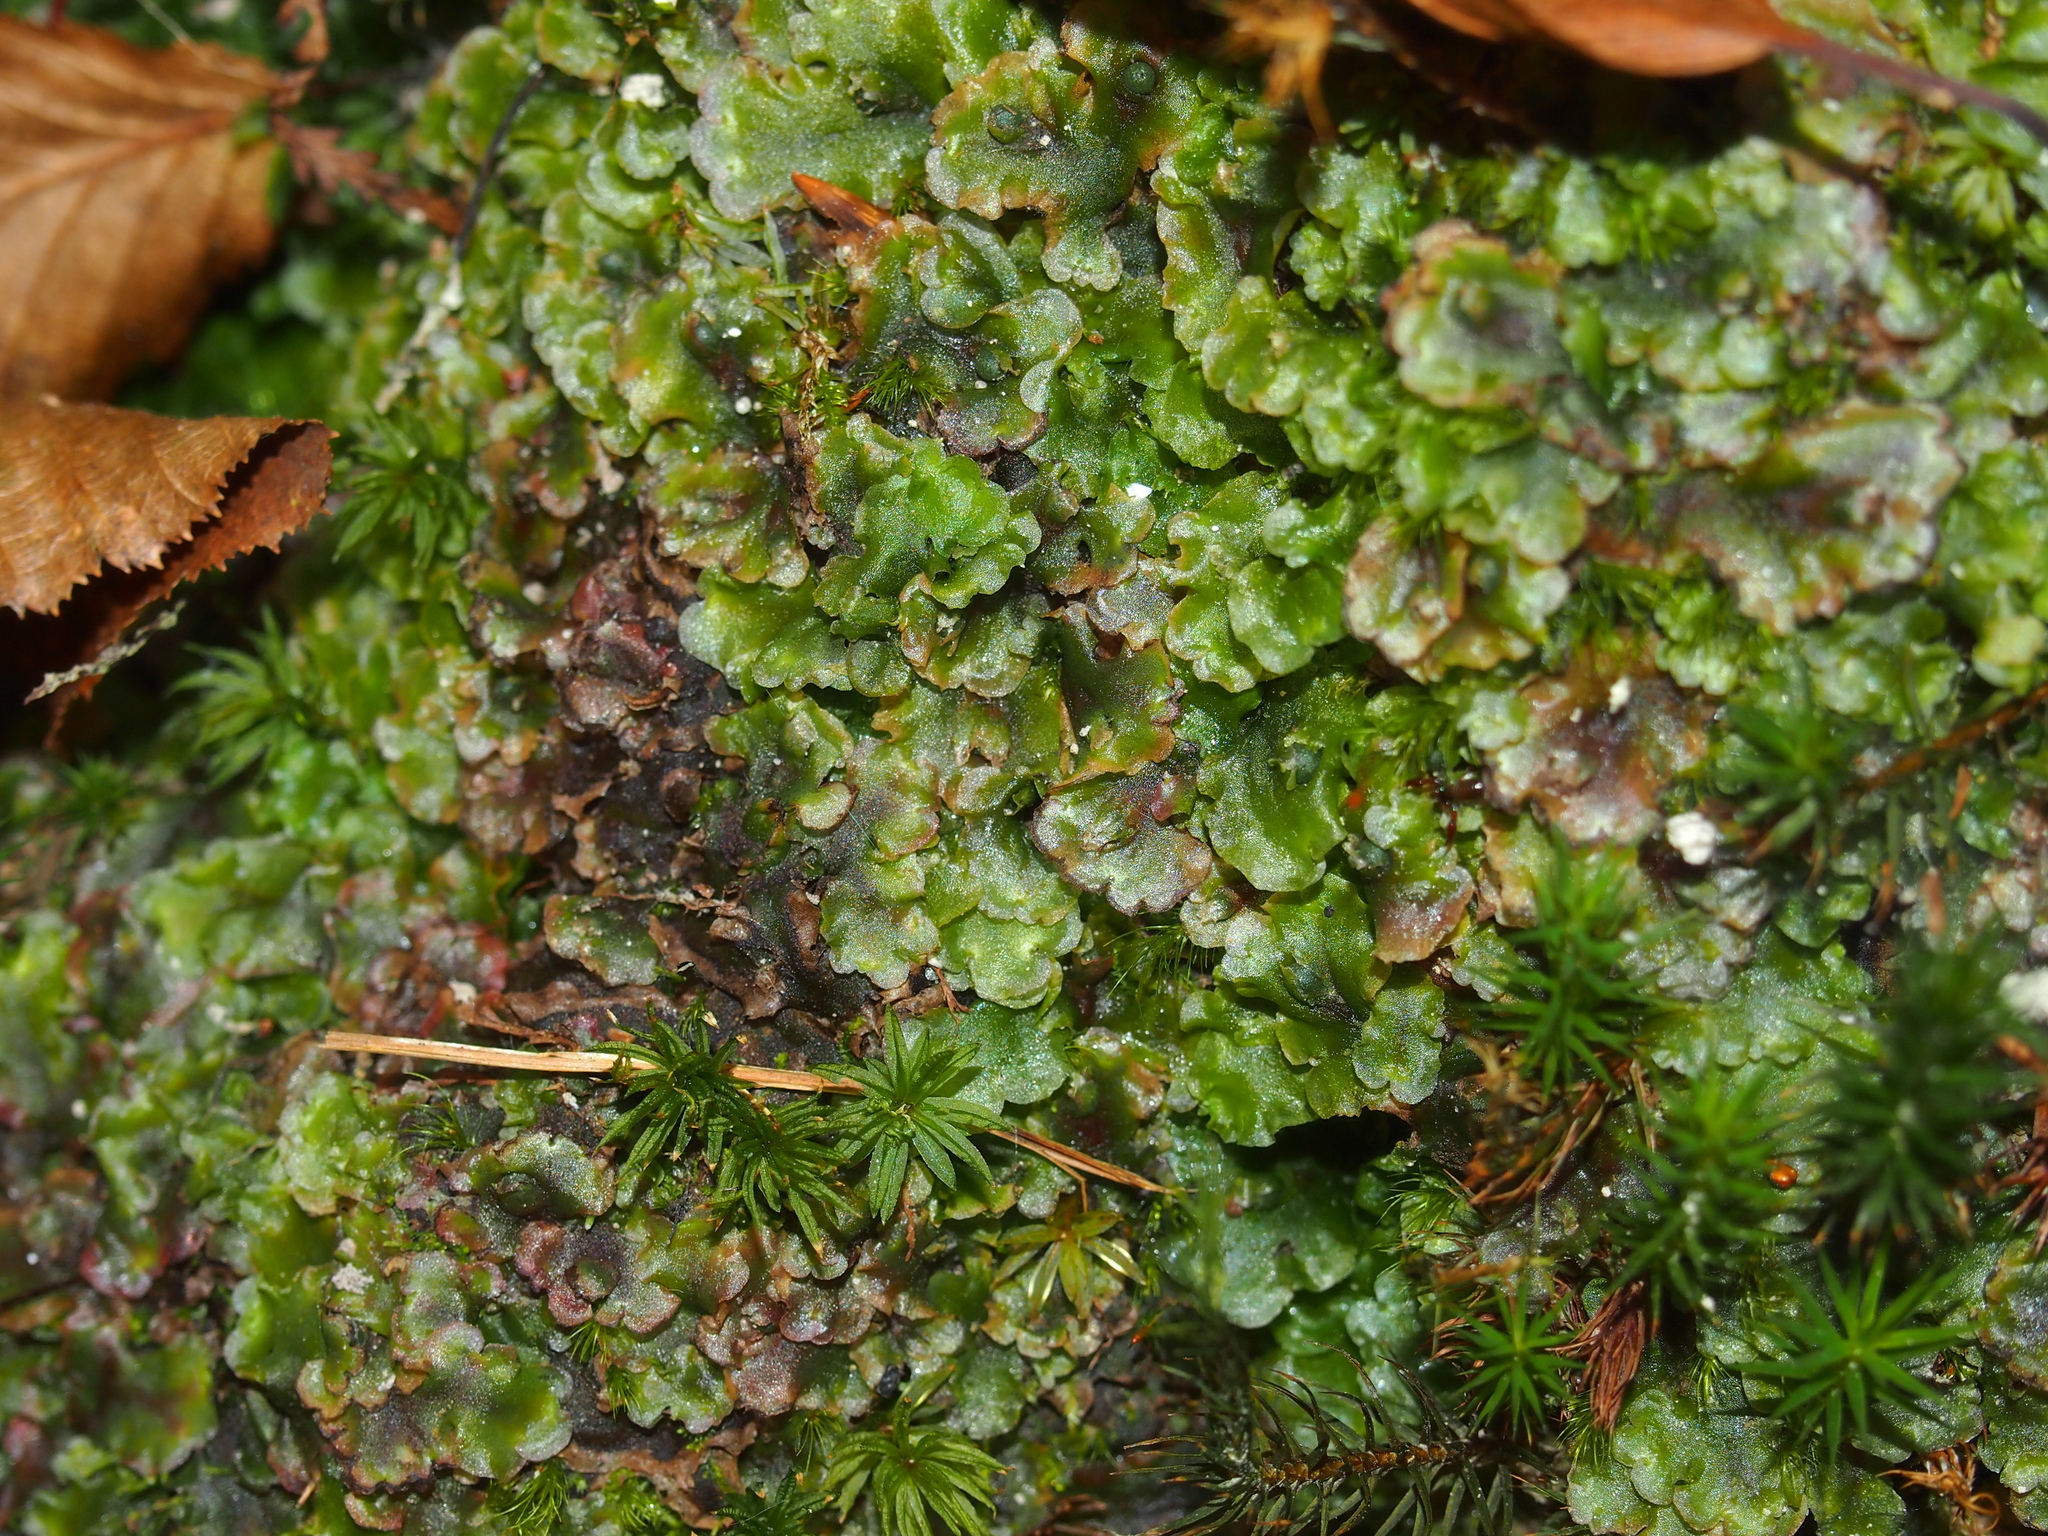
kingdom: Plantae
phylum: Marchantiophyta
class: Jungermanniopsida
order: Pelliales
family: Pelliaceae
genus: Pellia
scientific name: Pellia epiphylla
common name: Common pellia
